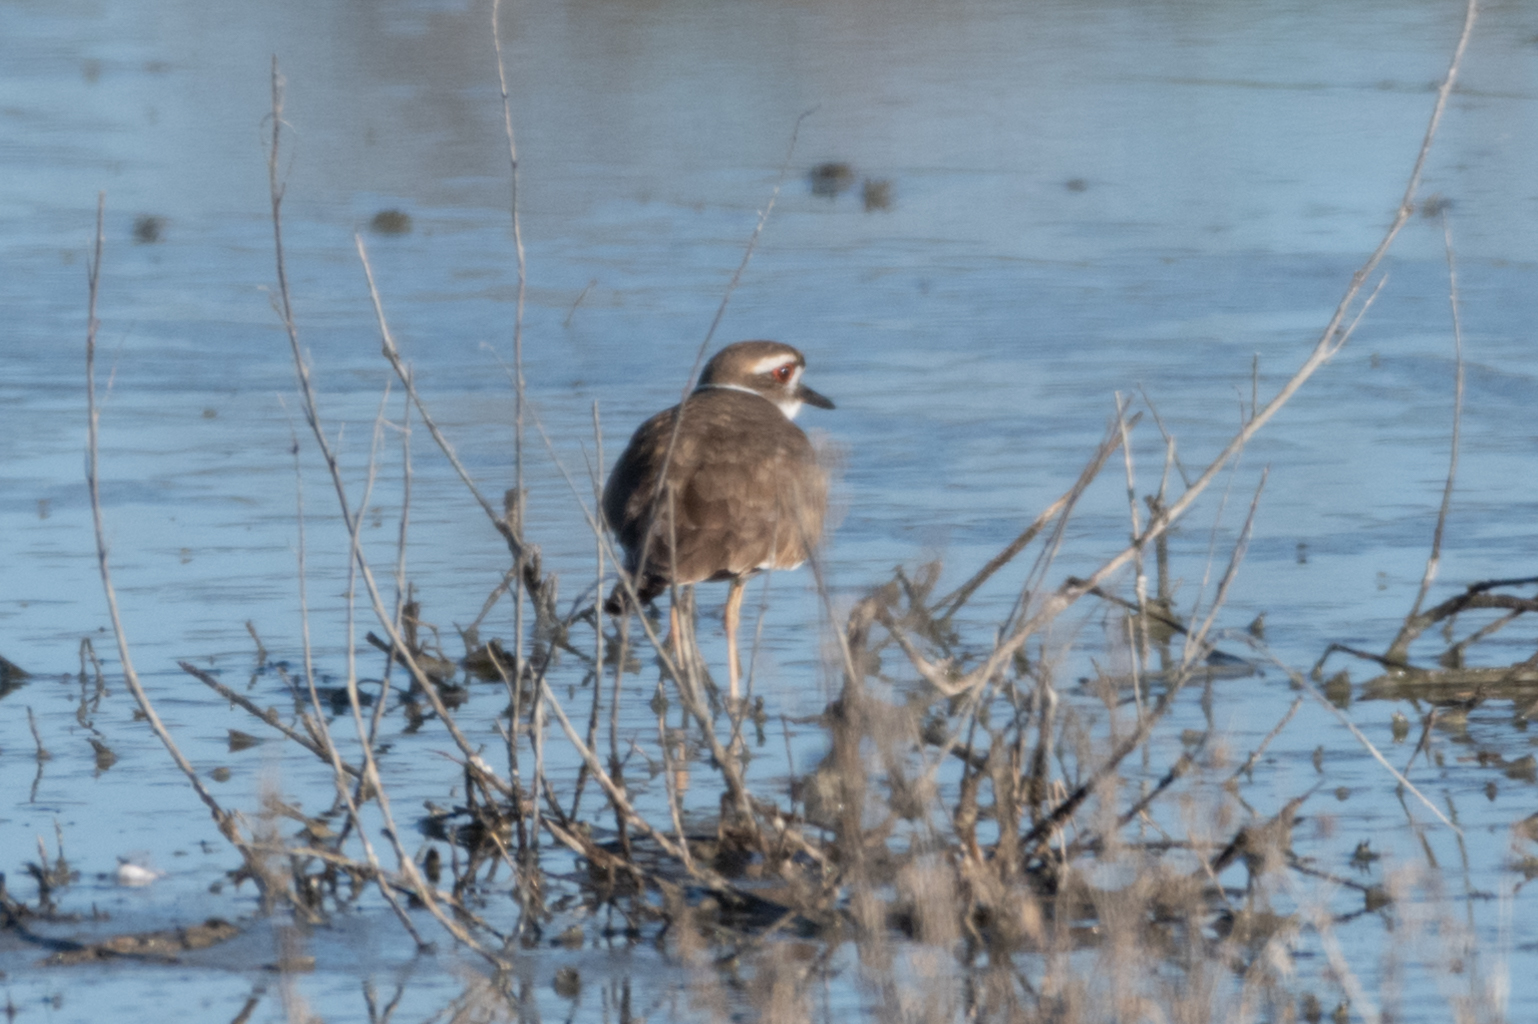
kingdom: Animalia
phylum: Chordata
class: Aves
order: Charadriiformes
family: Charadriidae
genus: Charadrius
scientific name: Charadrius vociferus
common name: Killdeer
